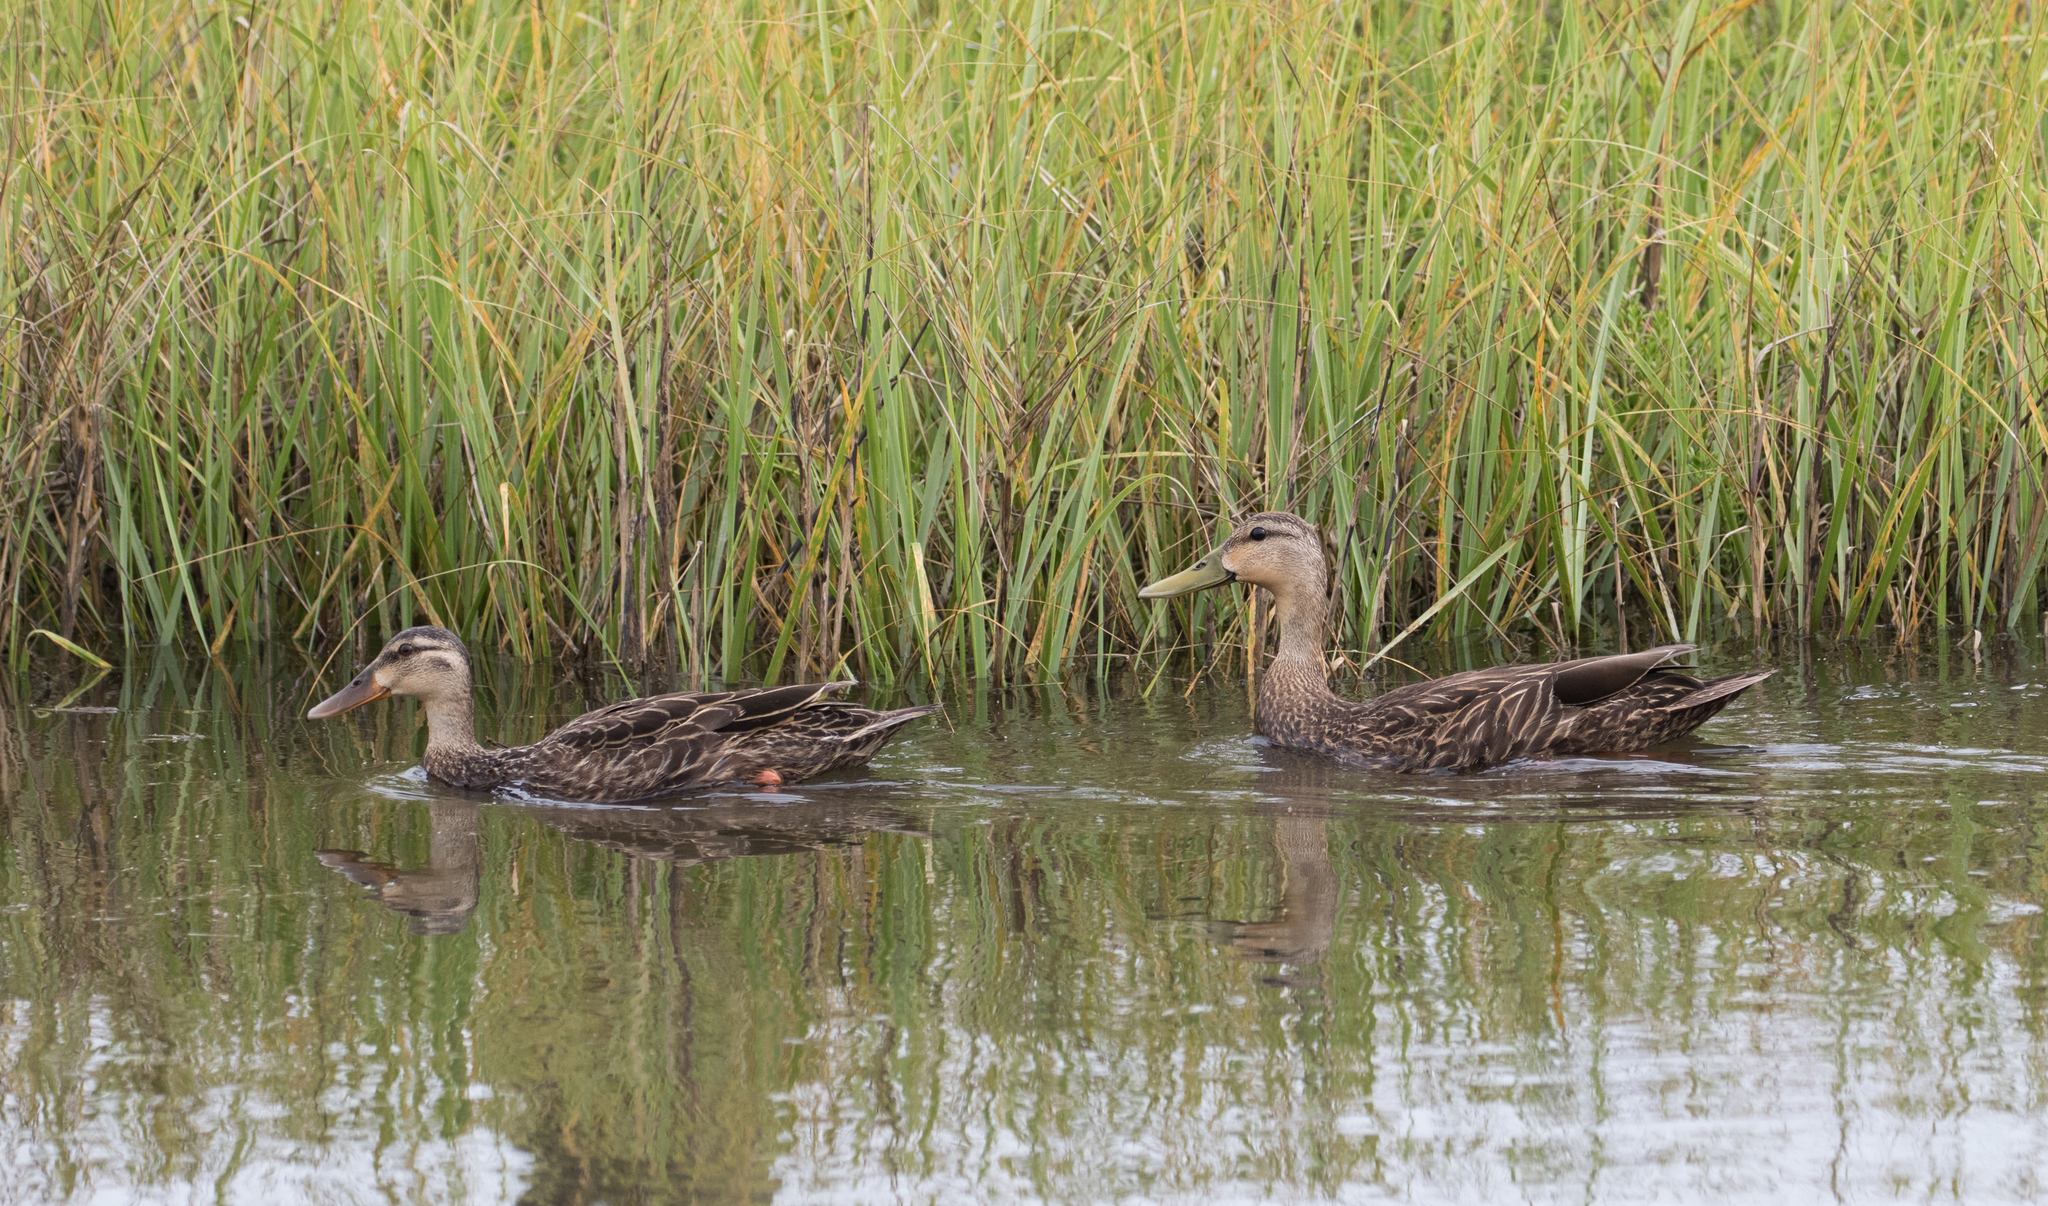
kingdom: Animalia
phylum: Chordata
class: Aves
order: Anseriformes
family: Anatidae
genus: Anas
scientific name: Anas fulvigula
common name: Mottled duck
